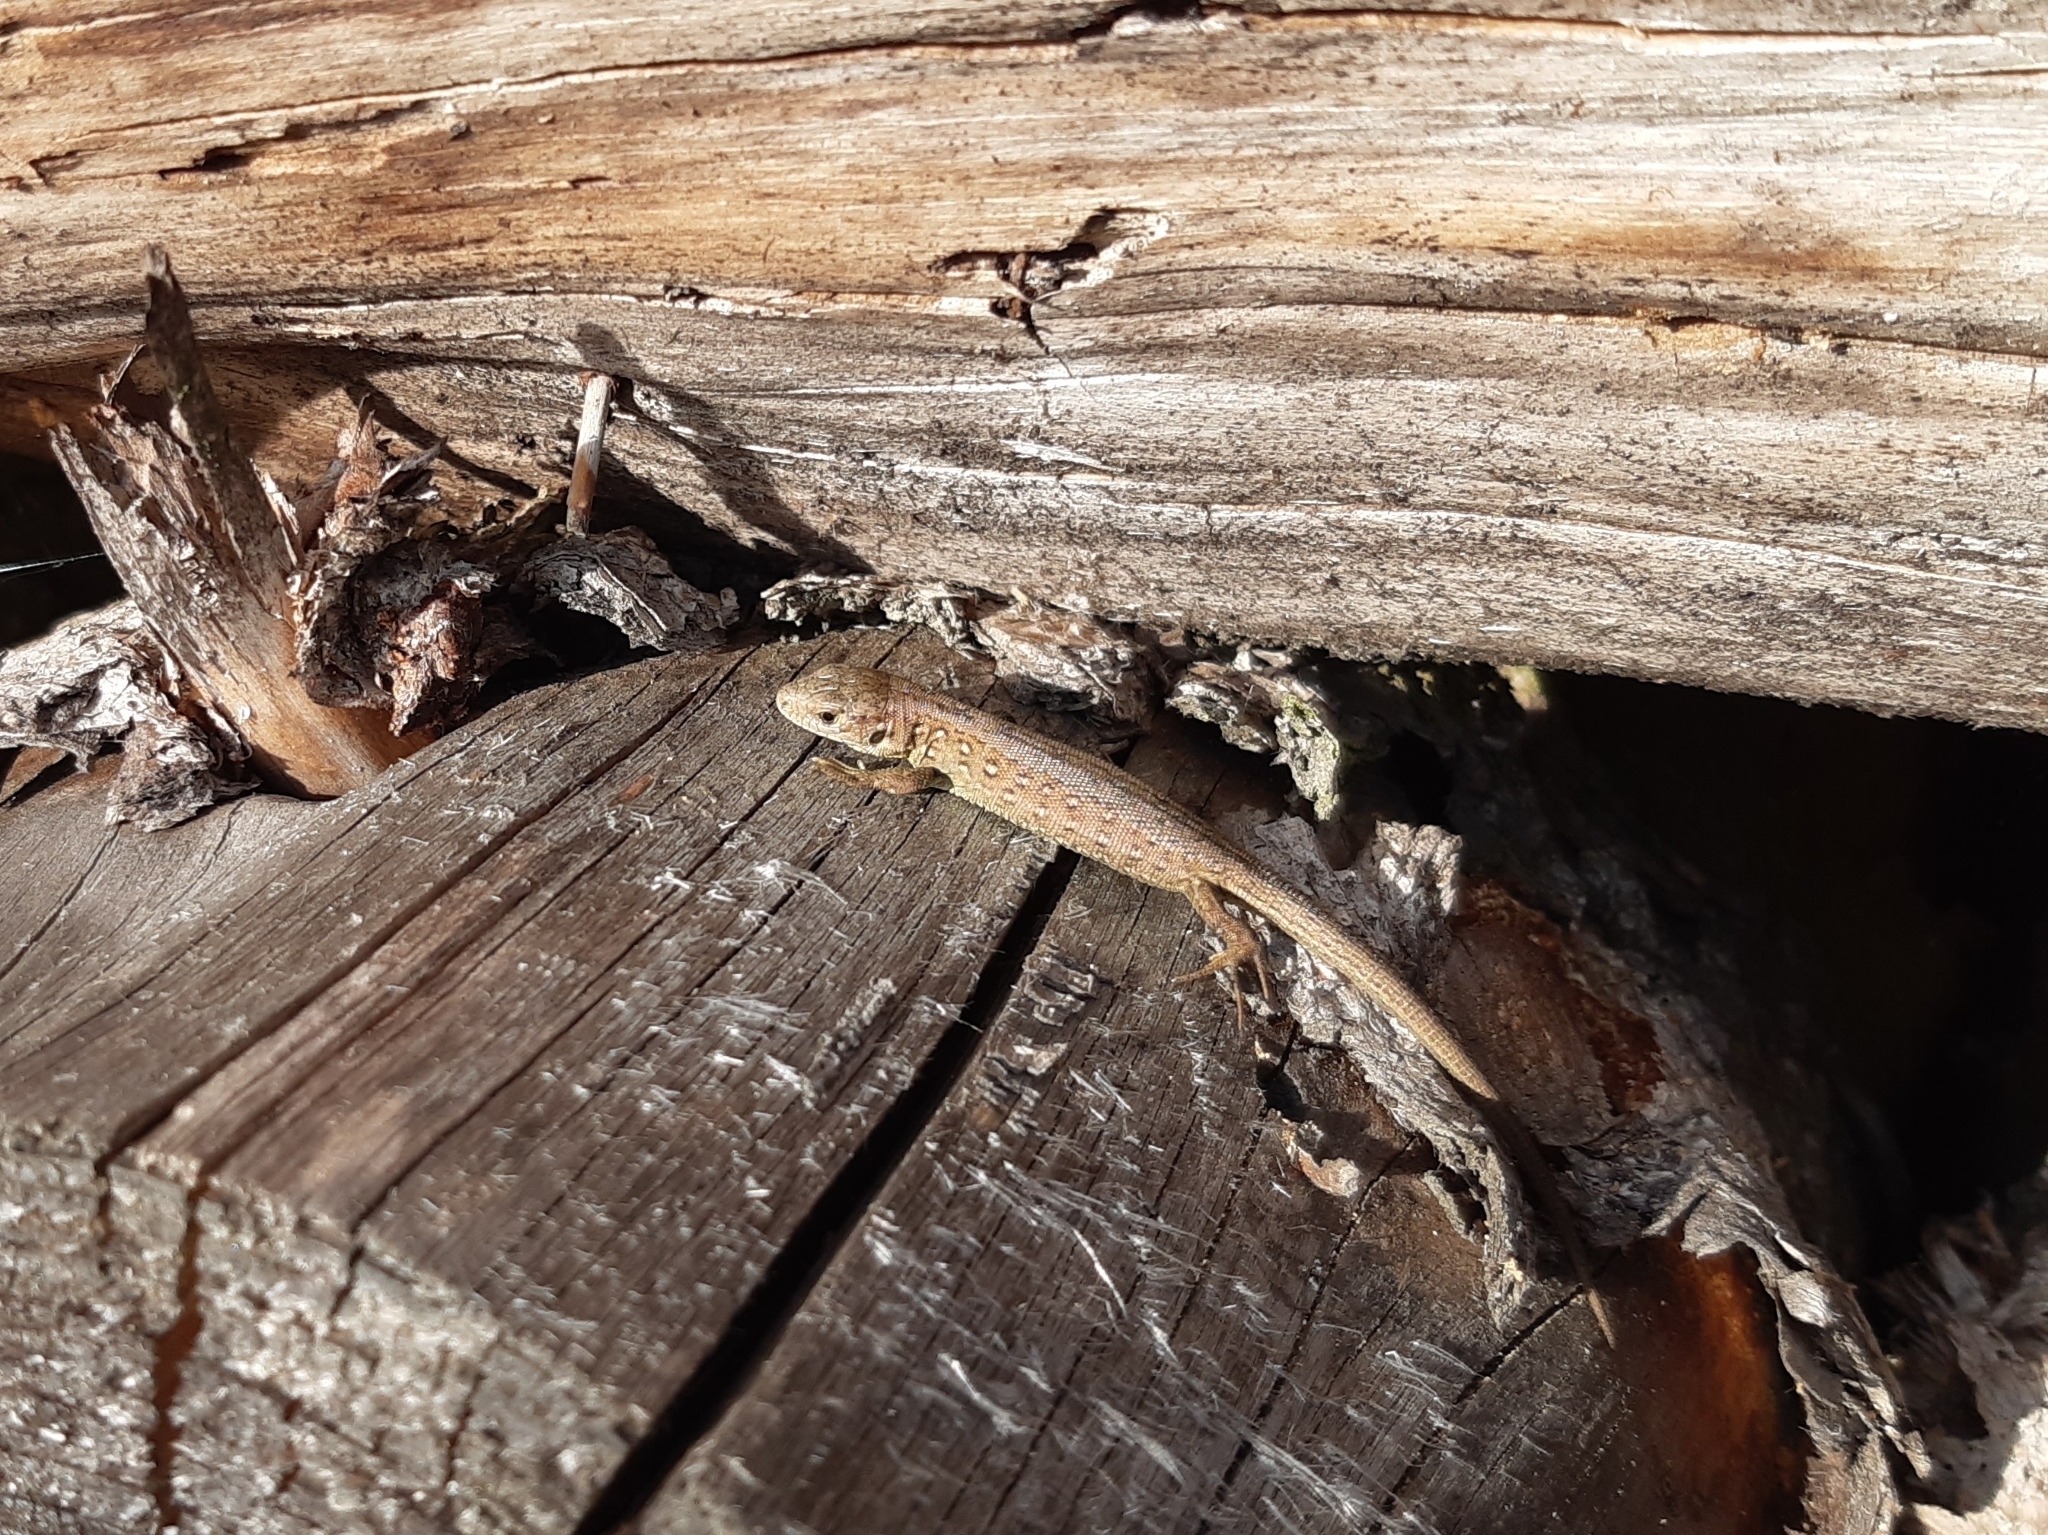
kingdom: Animalia
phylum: Chordata
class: Squamata
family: Lacertidae
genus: Lacerta
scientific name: Lacerta agilis
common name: Sand lizard
